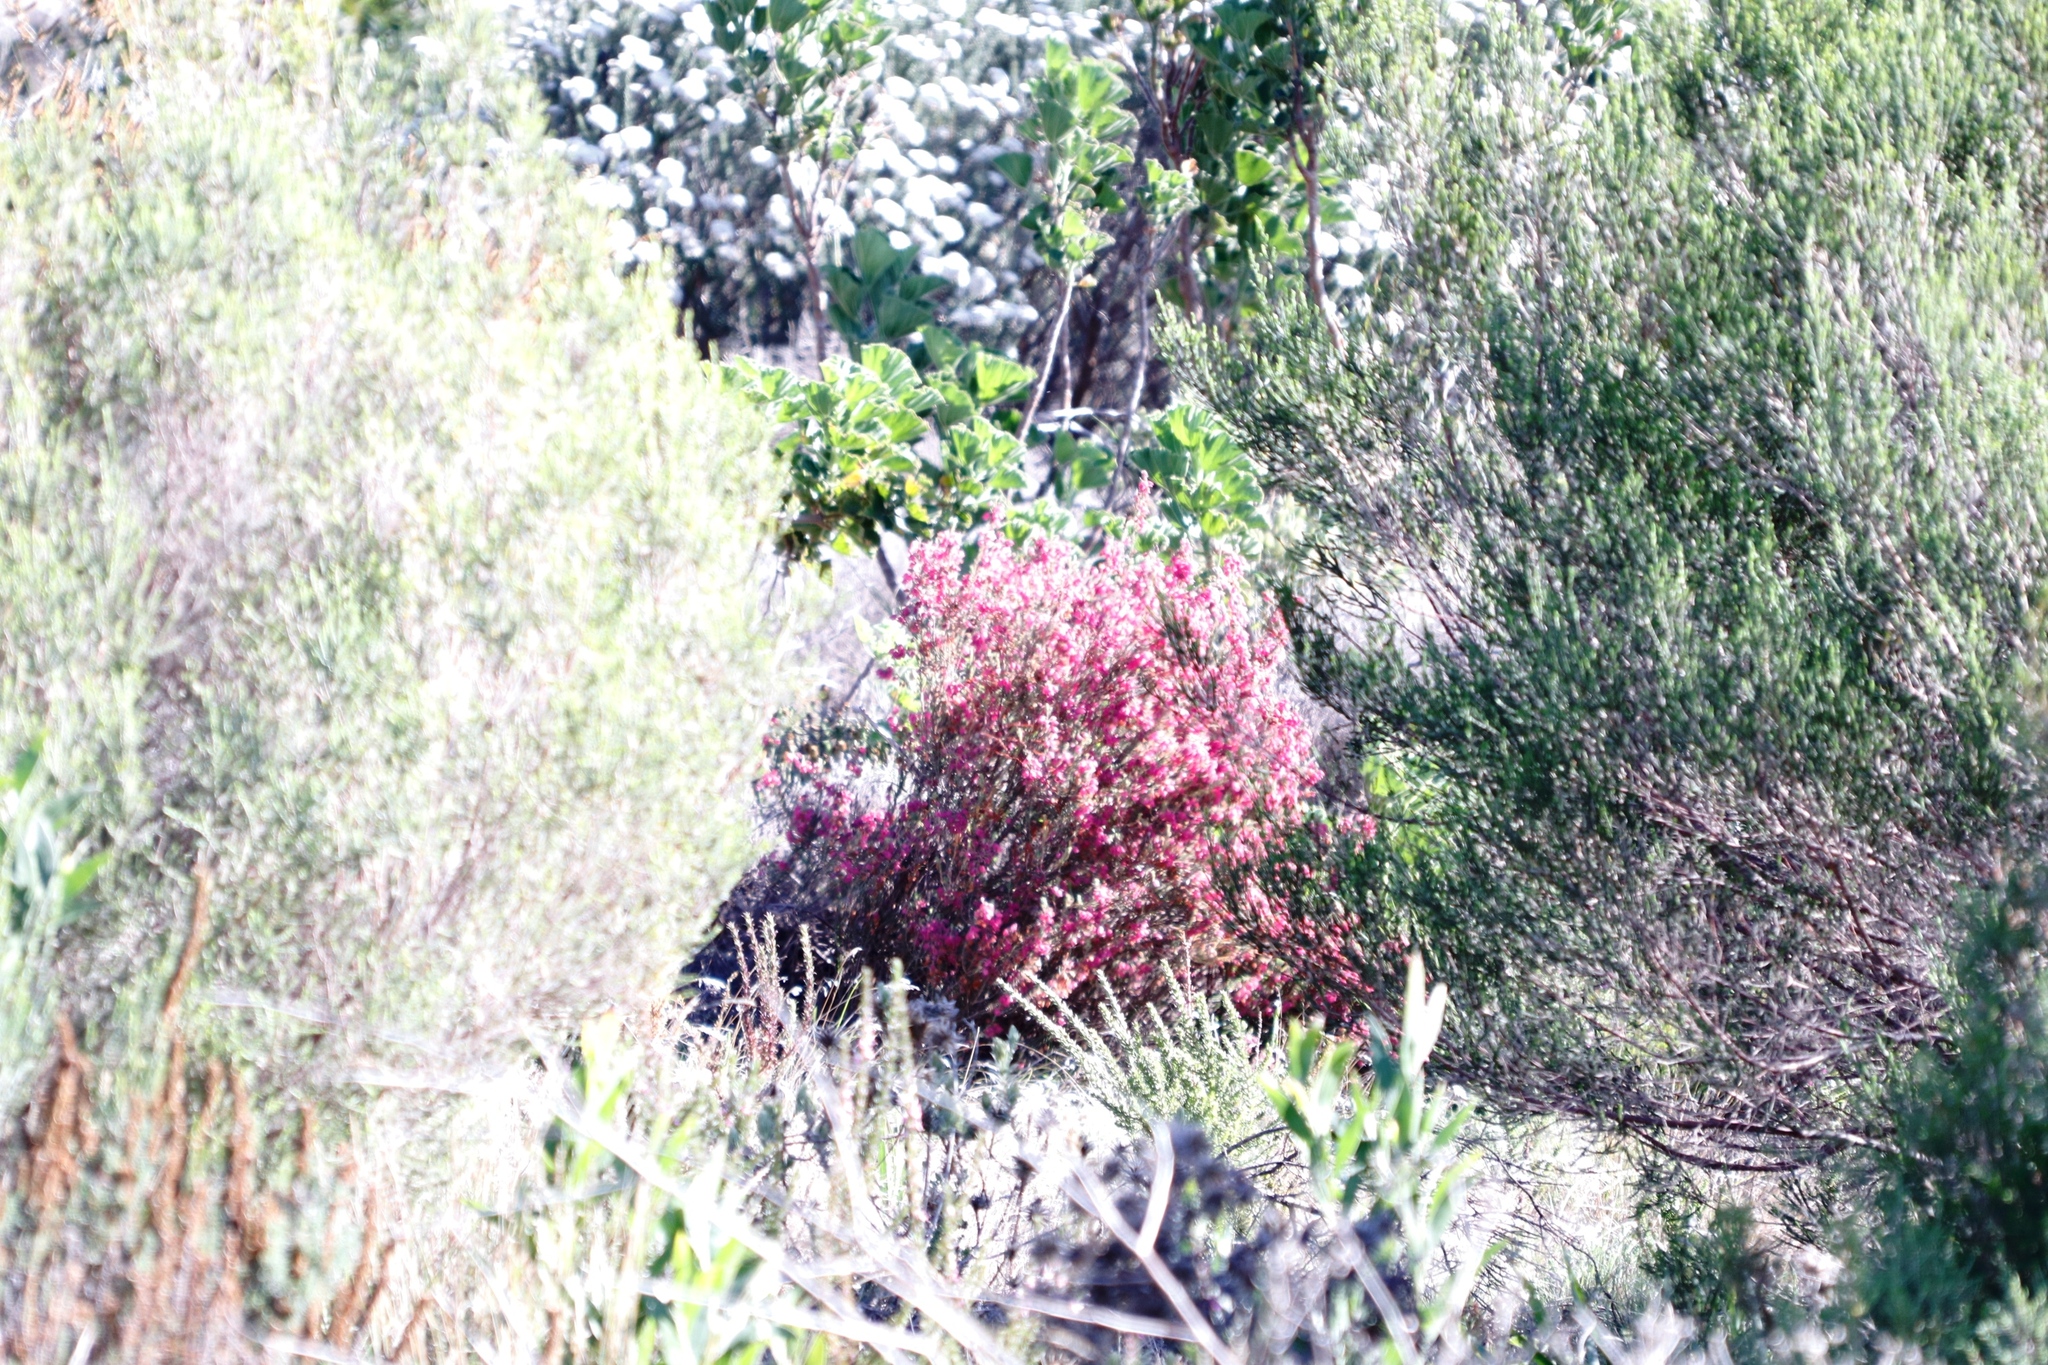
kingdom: Plantae
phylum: Tracheophyta
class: Magnoliopsida
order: Ericales
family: Ericaceae
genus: Erica
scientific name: Erica viscaria
